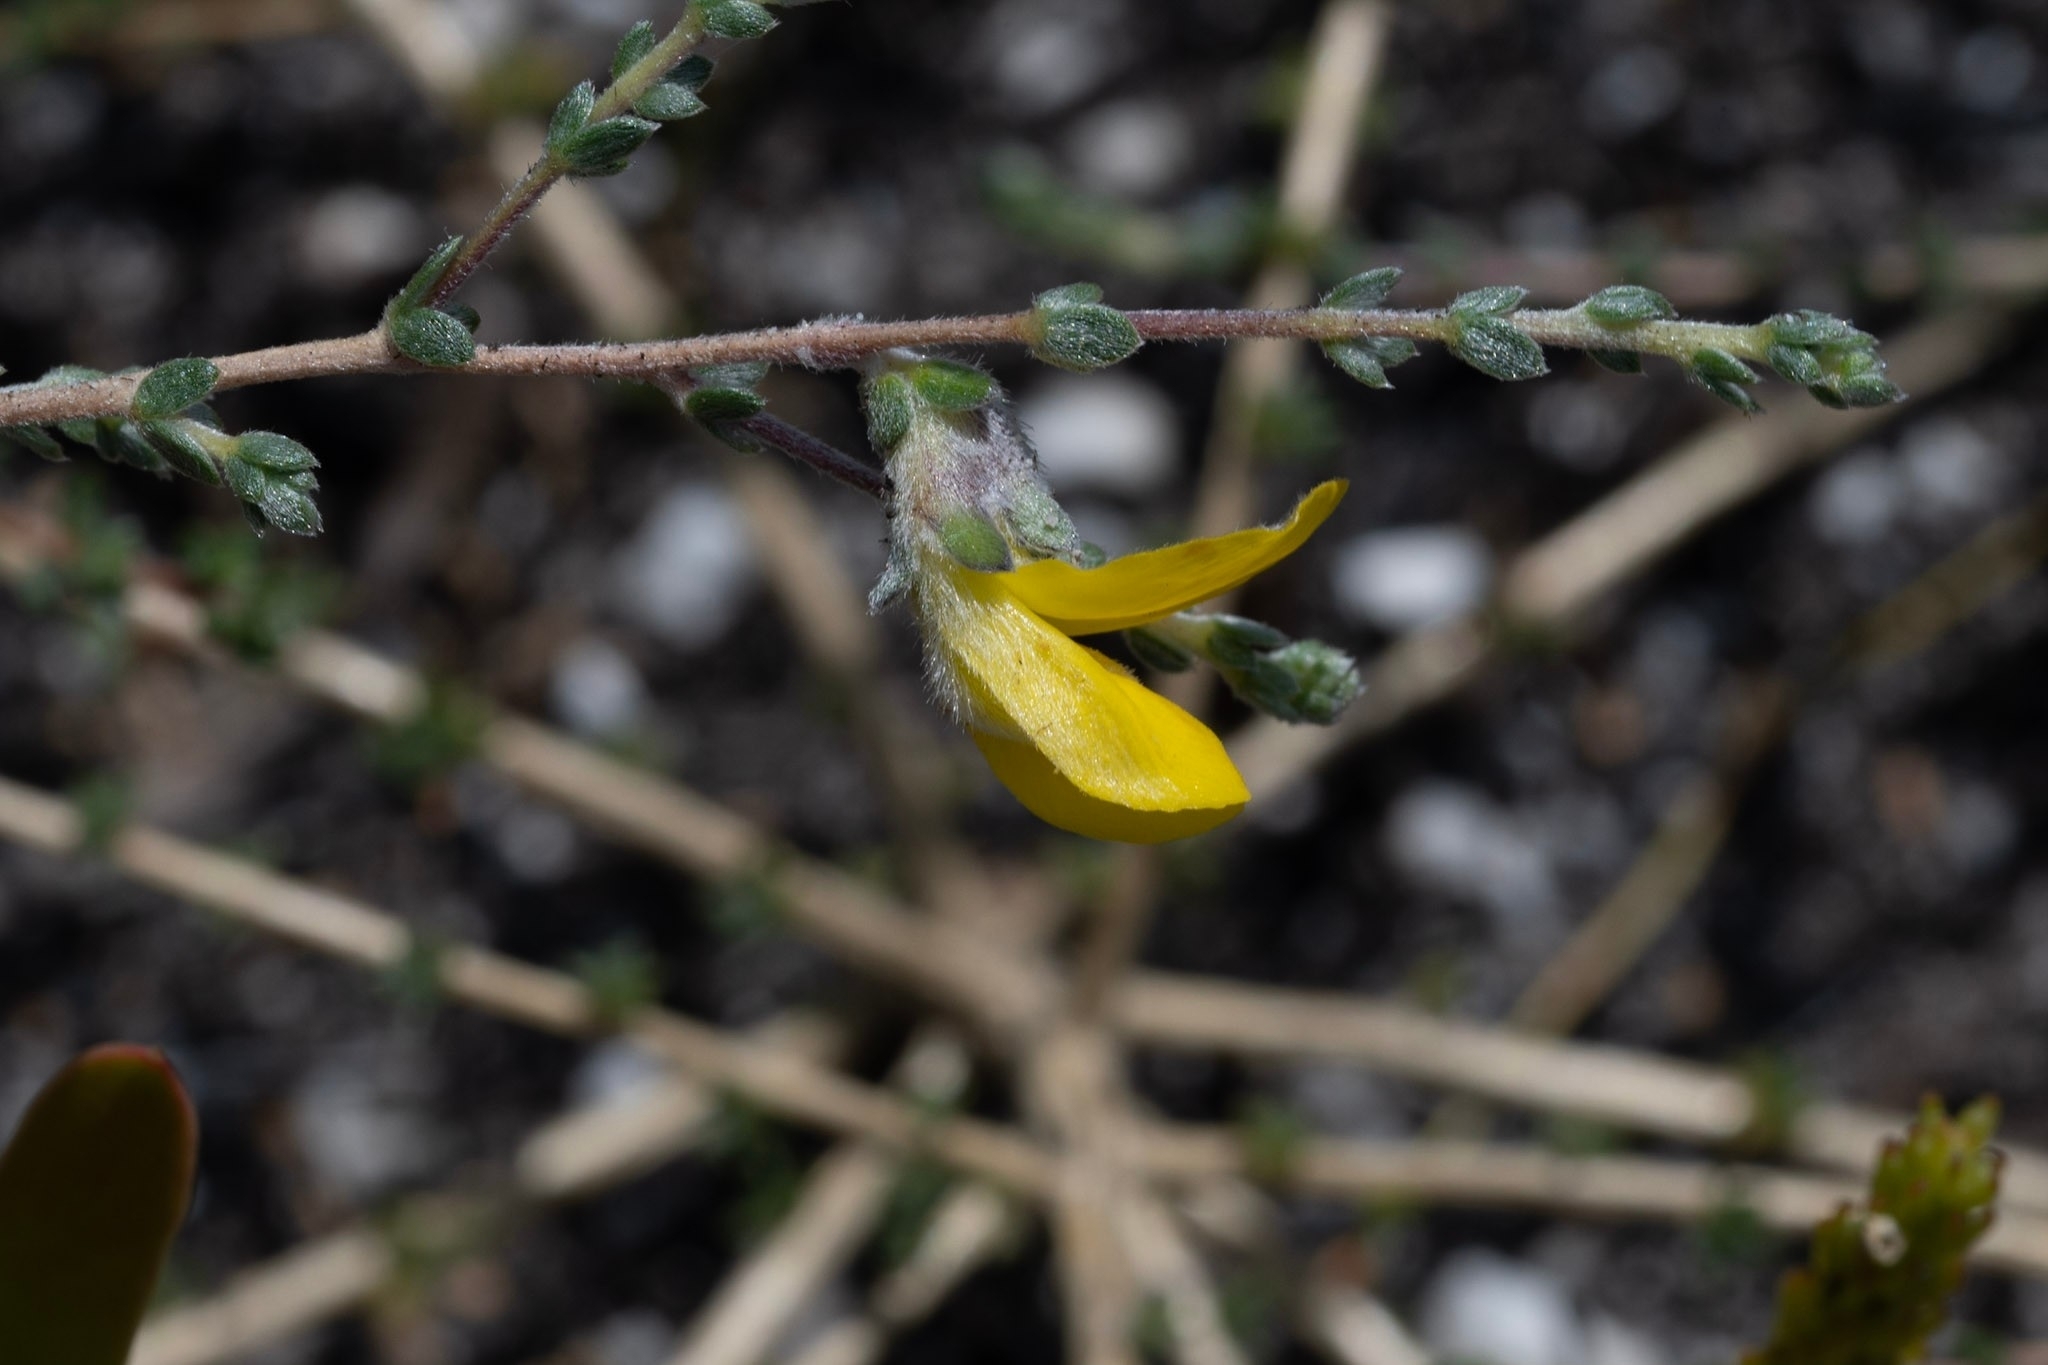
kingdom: Plantae
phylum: Tracheophyta
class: Magnoliopsida
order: Fabales
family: Fabaceae
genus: Aspalathus
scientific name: Aspalathus intervallaris
